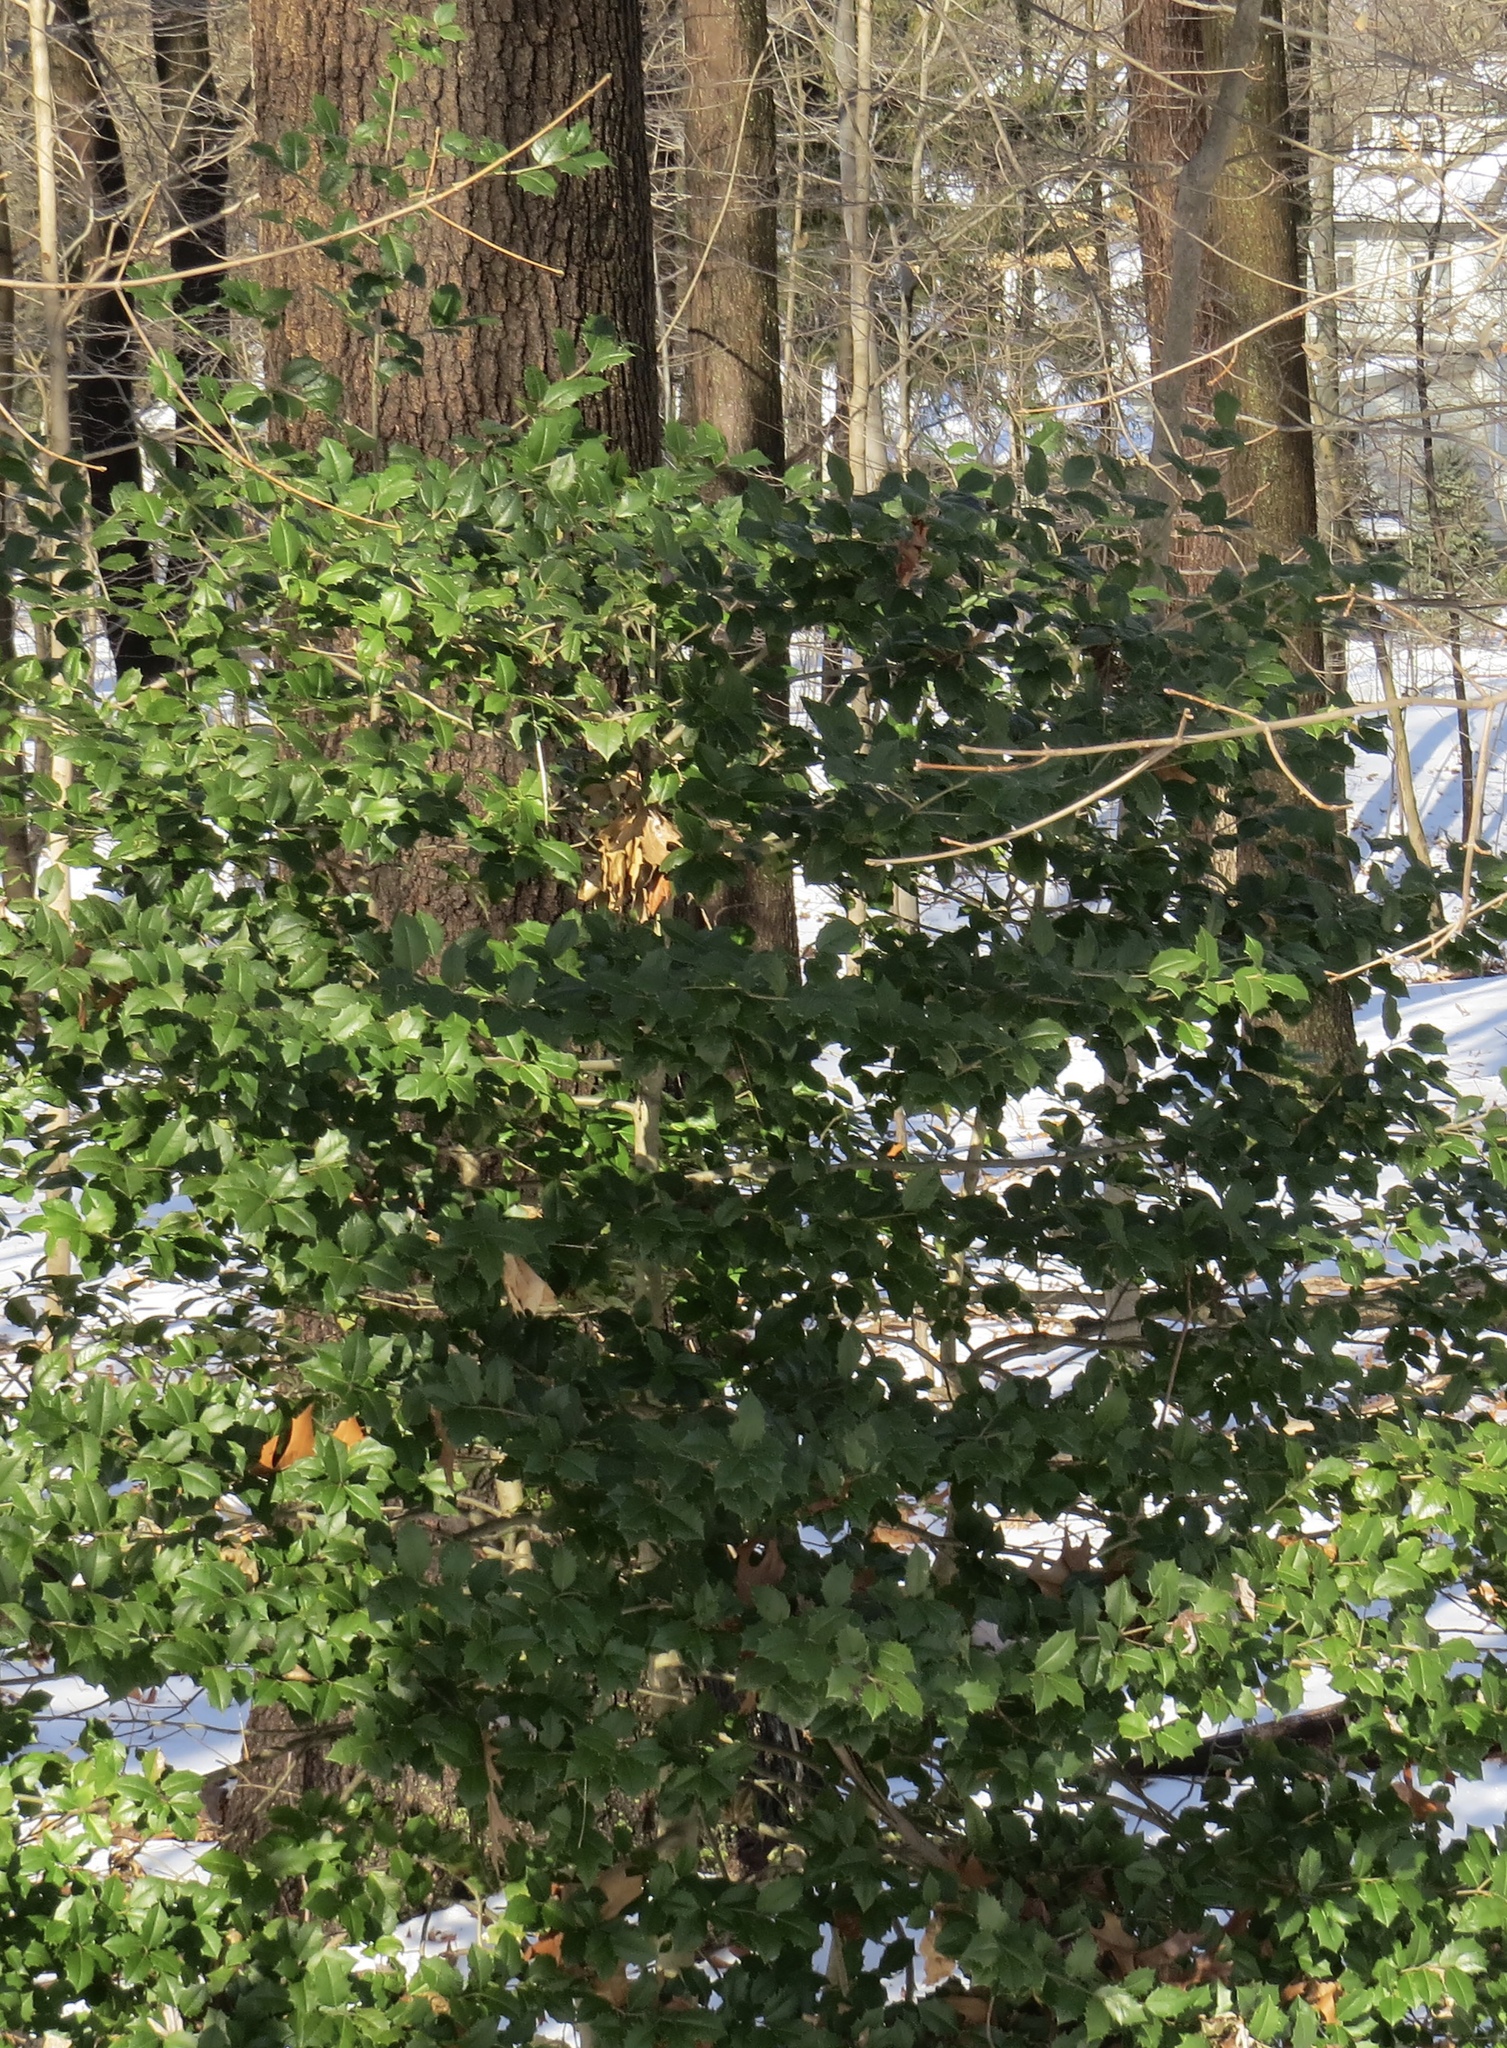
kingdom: Plantae
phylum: Tracheophyta
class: Magnoliopsida
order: Aquifoliales
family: Aquifoliaceae
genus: Ilex
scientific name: Ilex opaca
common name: American holly
